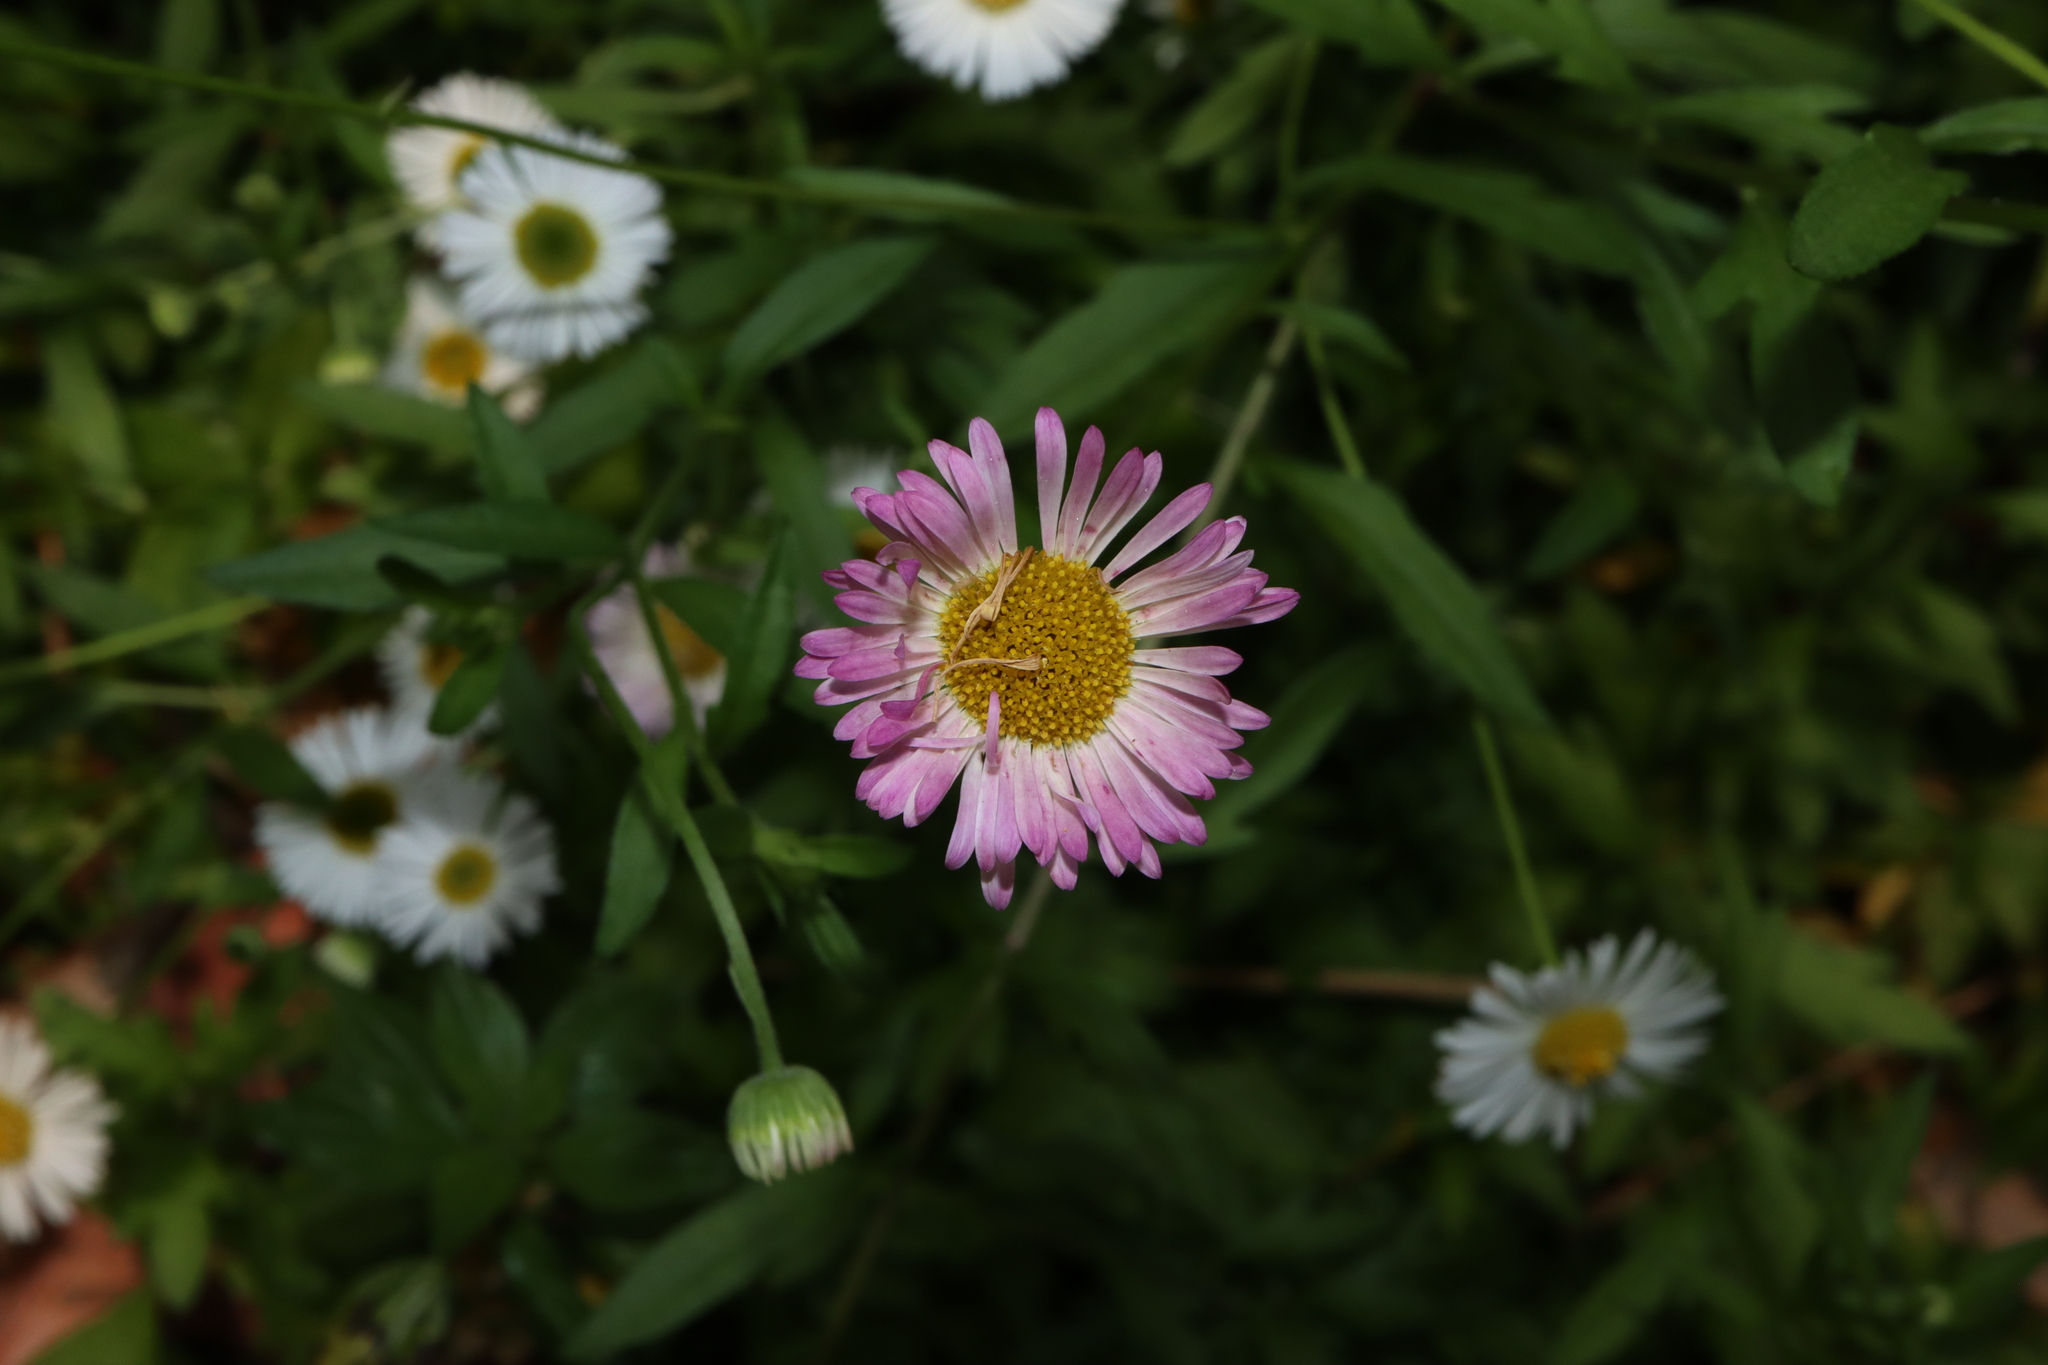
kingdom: Plantae
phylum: Tracheophyta
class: Magnoliopsida
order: Asterales
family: Asteraceae
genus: Erigeron
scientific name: Erigeron karvinskianus
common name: Mexican fleabane
